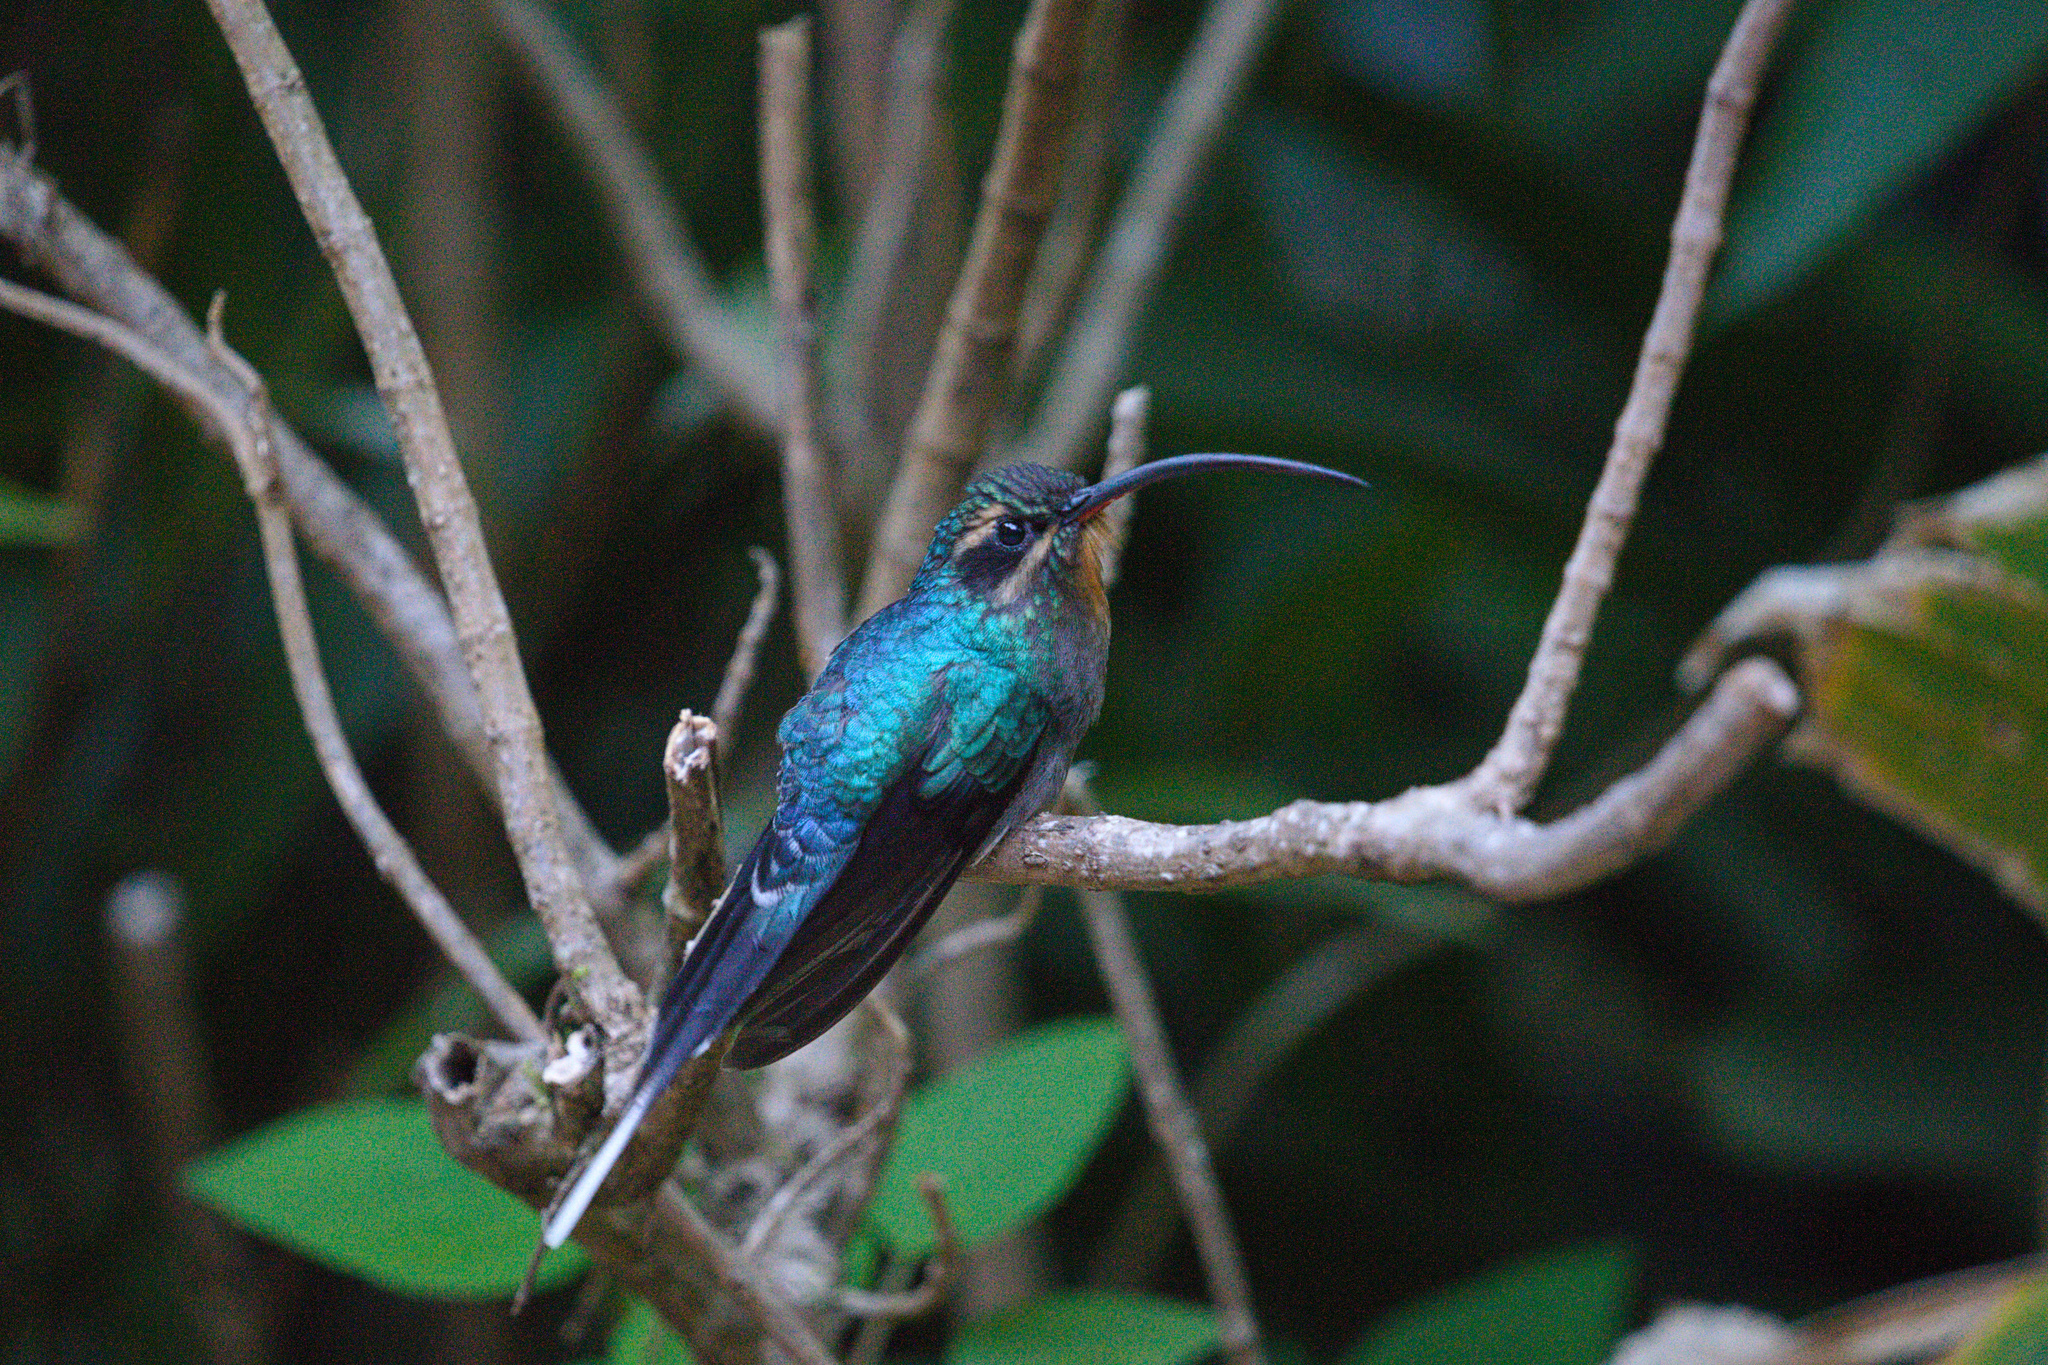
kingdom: Animalia
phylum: Chordata
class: Aves
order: Apodiformes
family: Trochilidae
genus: Phaethornis
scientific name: Phaethornis guy
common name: Green hermit
